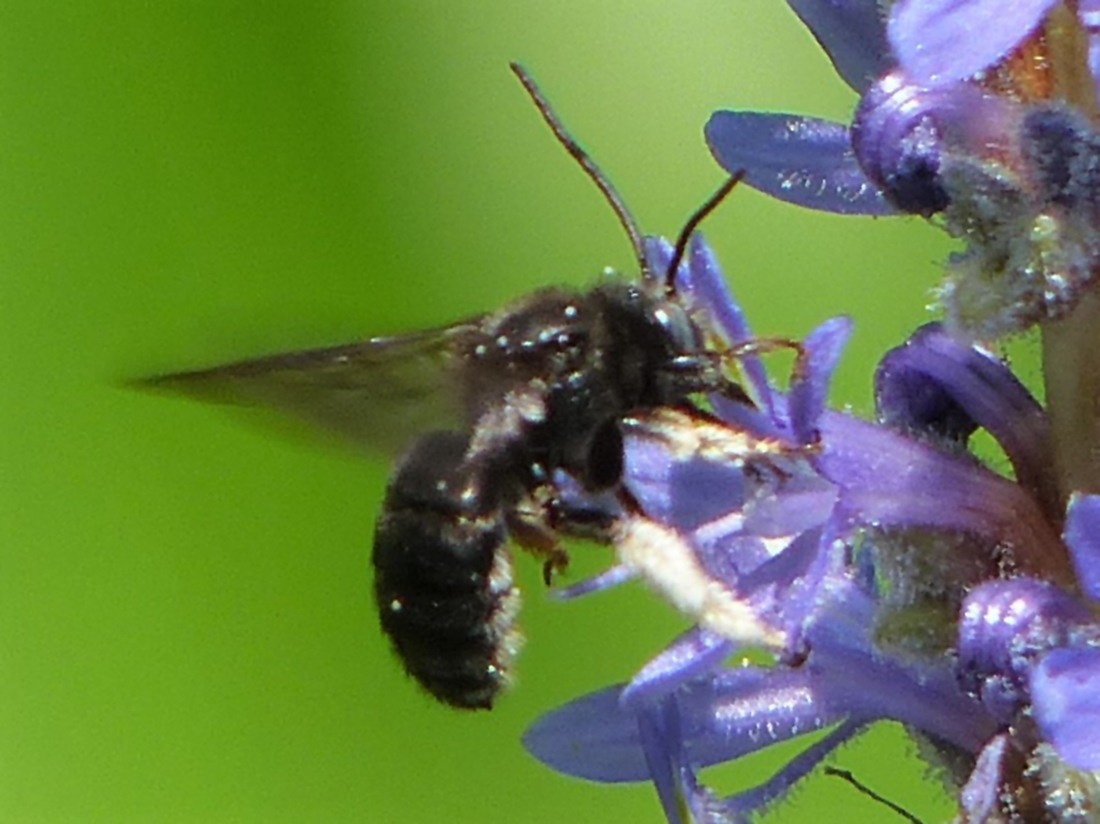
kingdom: Animalia
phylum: Arthropoda
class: Insecta
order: Hymenoptera
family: Apidae
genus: Melissodes
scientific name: Melissodes bimaculatus
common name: Two-spotted long-horned bee
